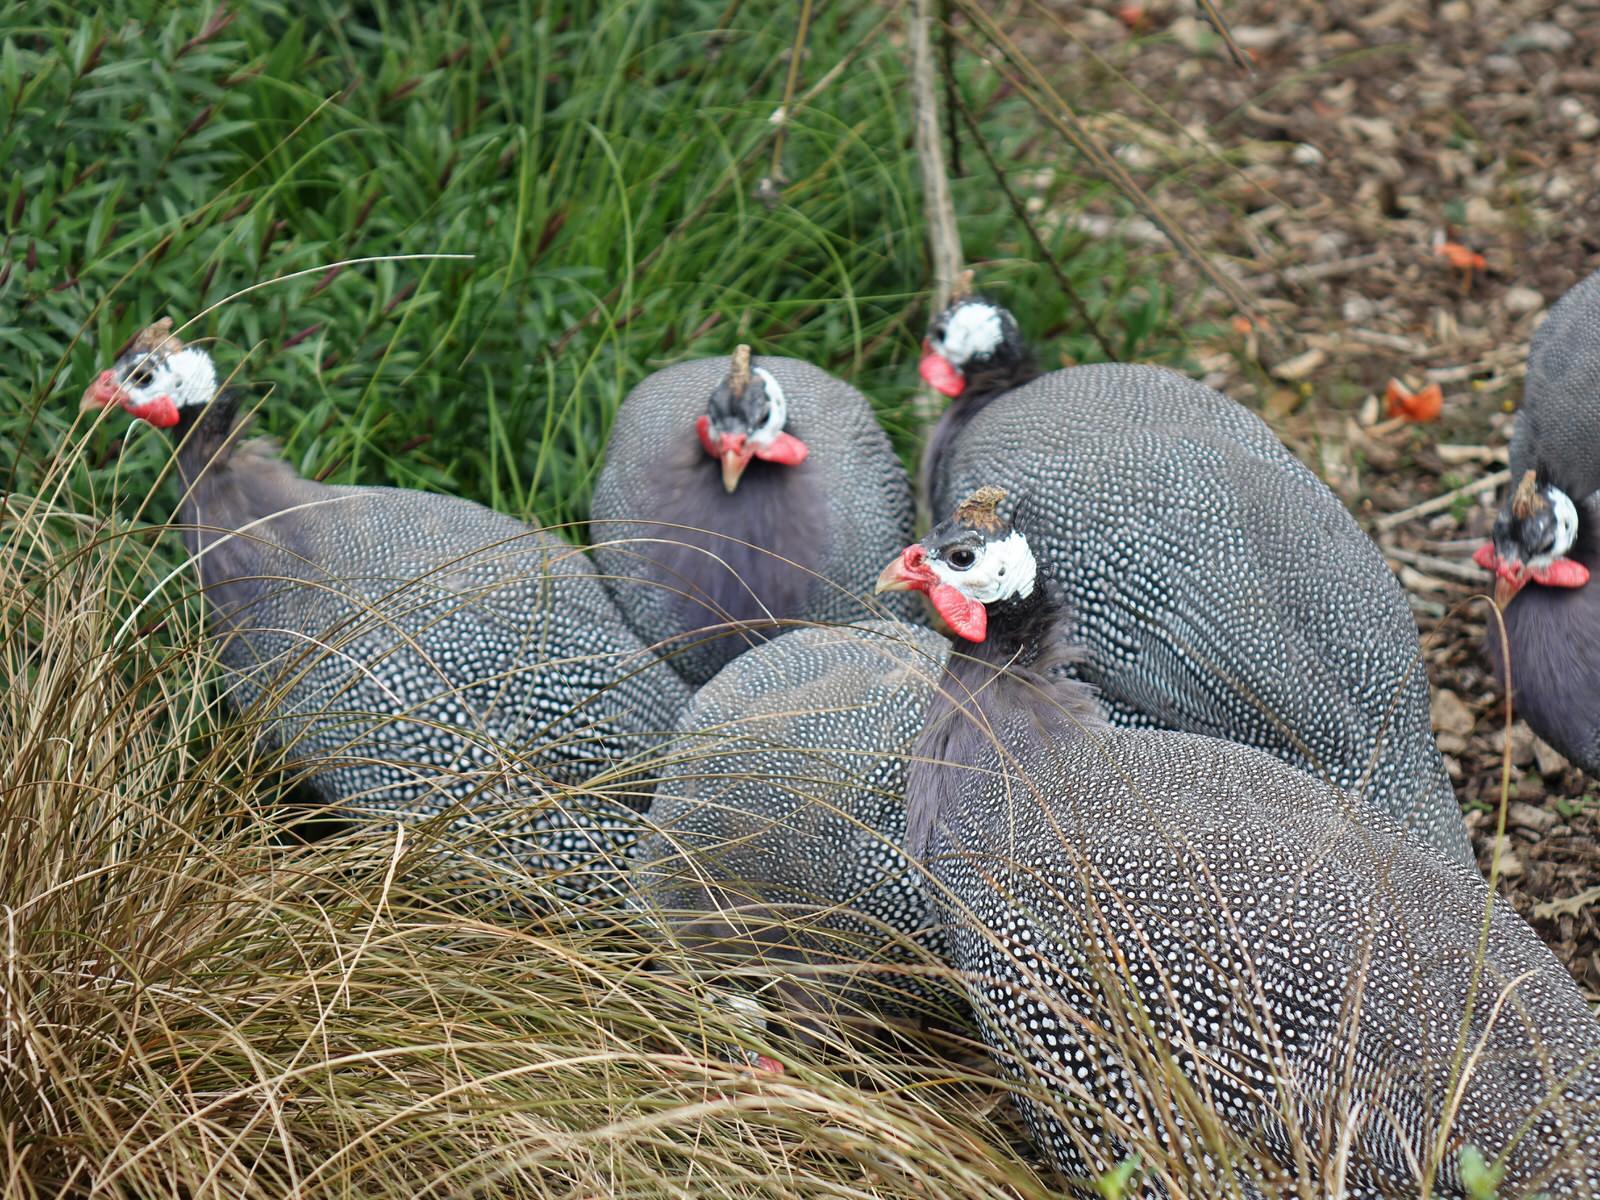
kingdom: Animalia
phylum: Chordata
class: Aves
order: Galliformes
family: Numididae
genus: Numida
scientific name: Numida meleagris
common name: Helmeted guineafowl
